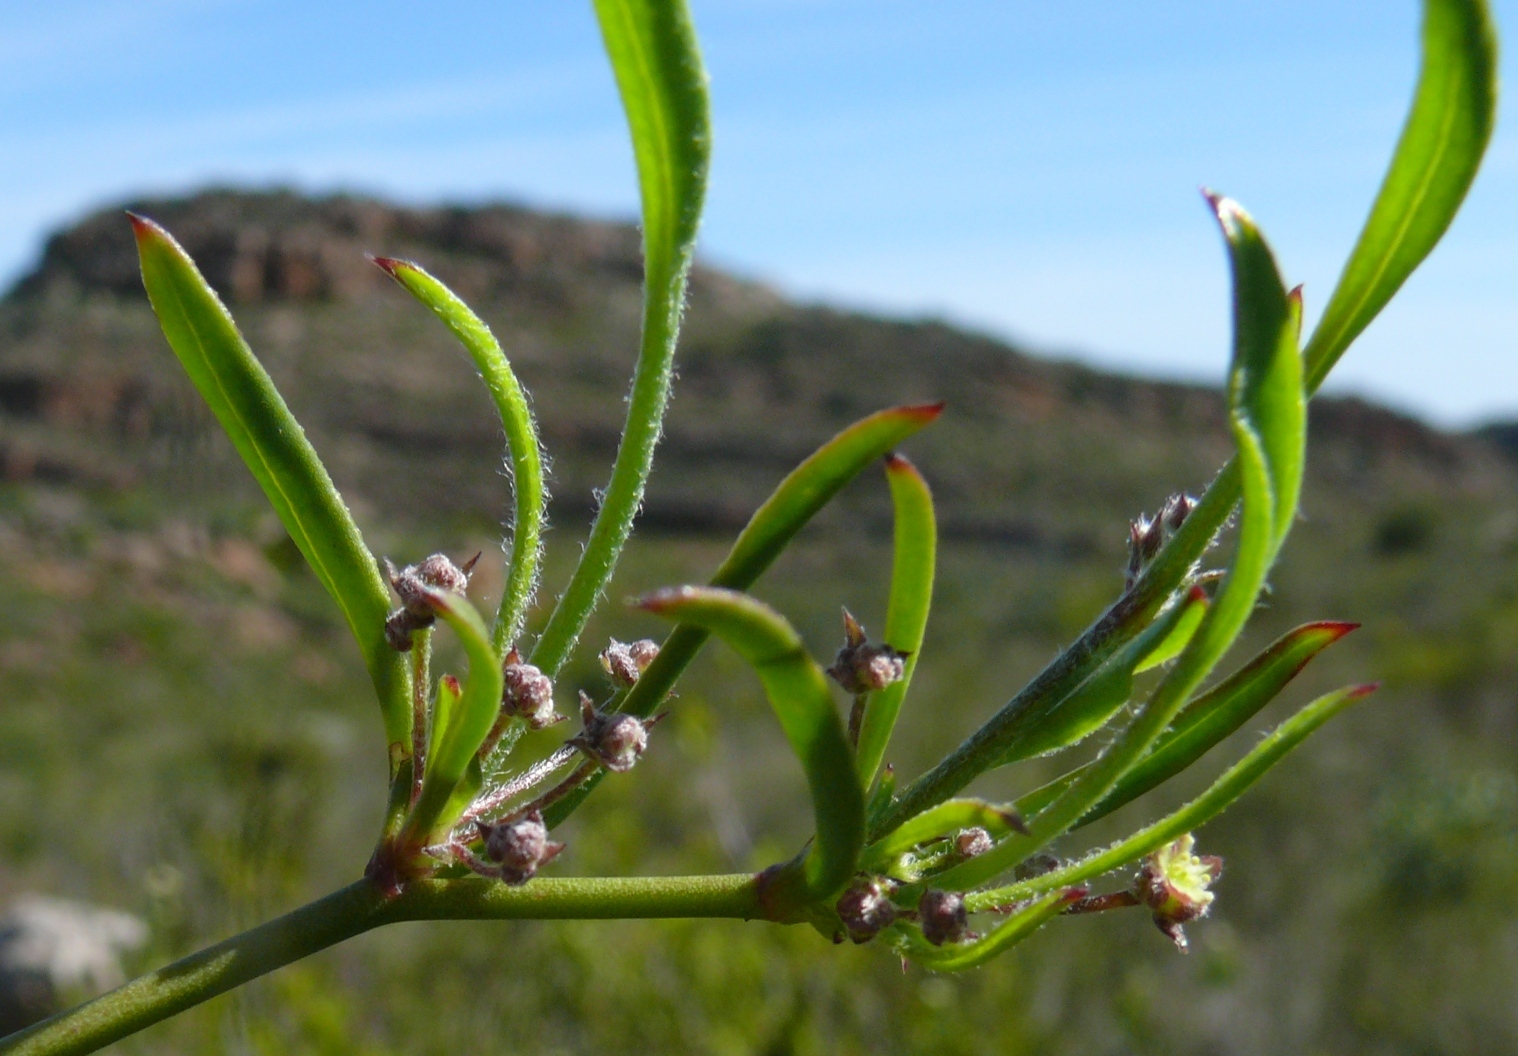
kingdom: Plantae
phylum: Tracheophyta
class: Magnoliopsida
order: Apiales
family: Apiaceae
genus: Centella
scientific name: Centella glabrata
